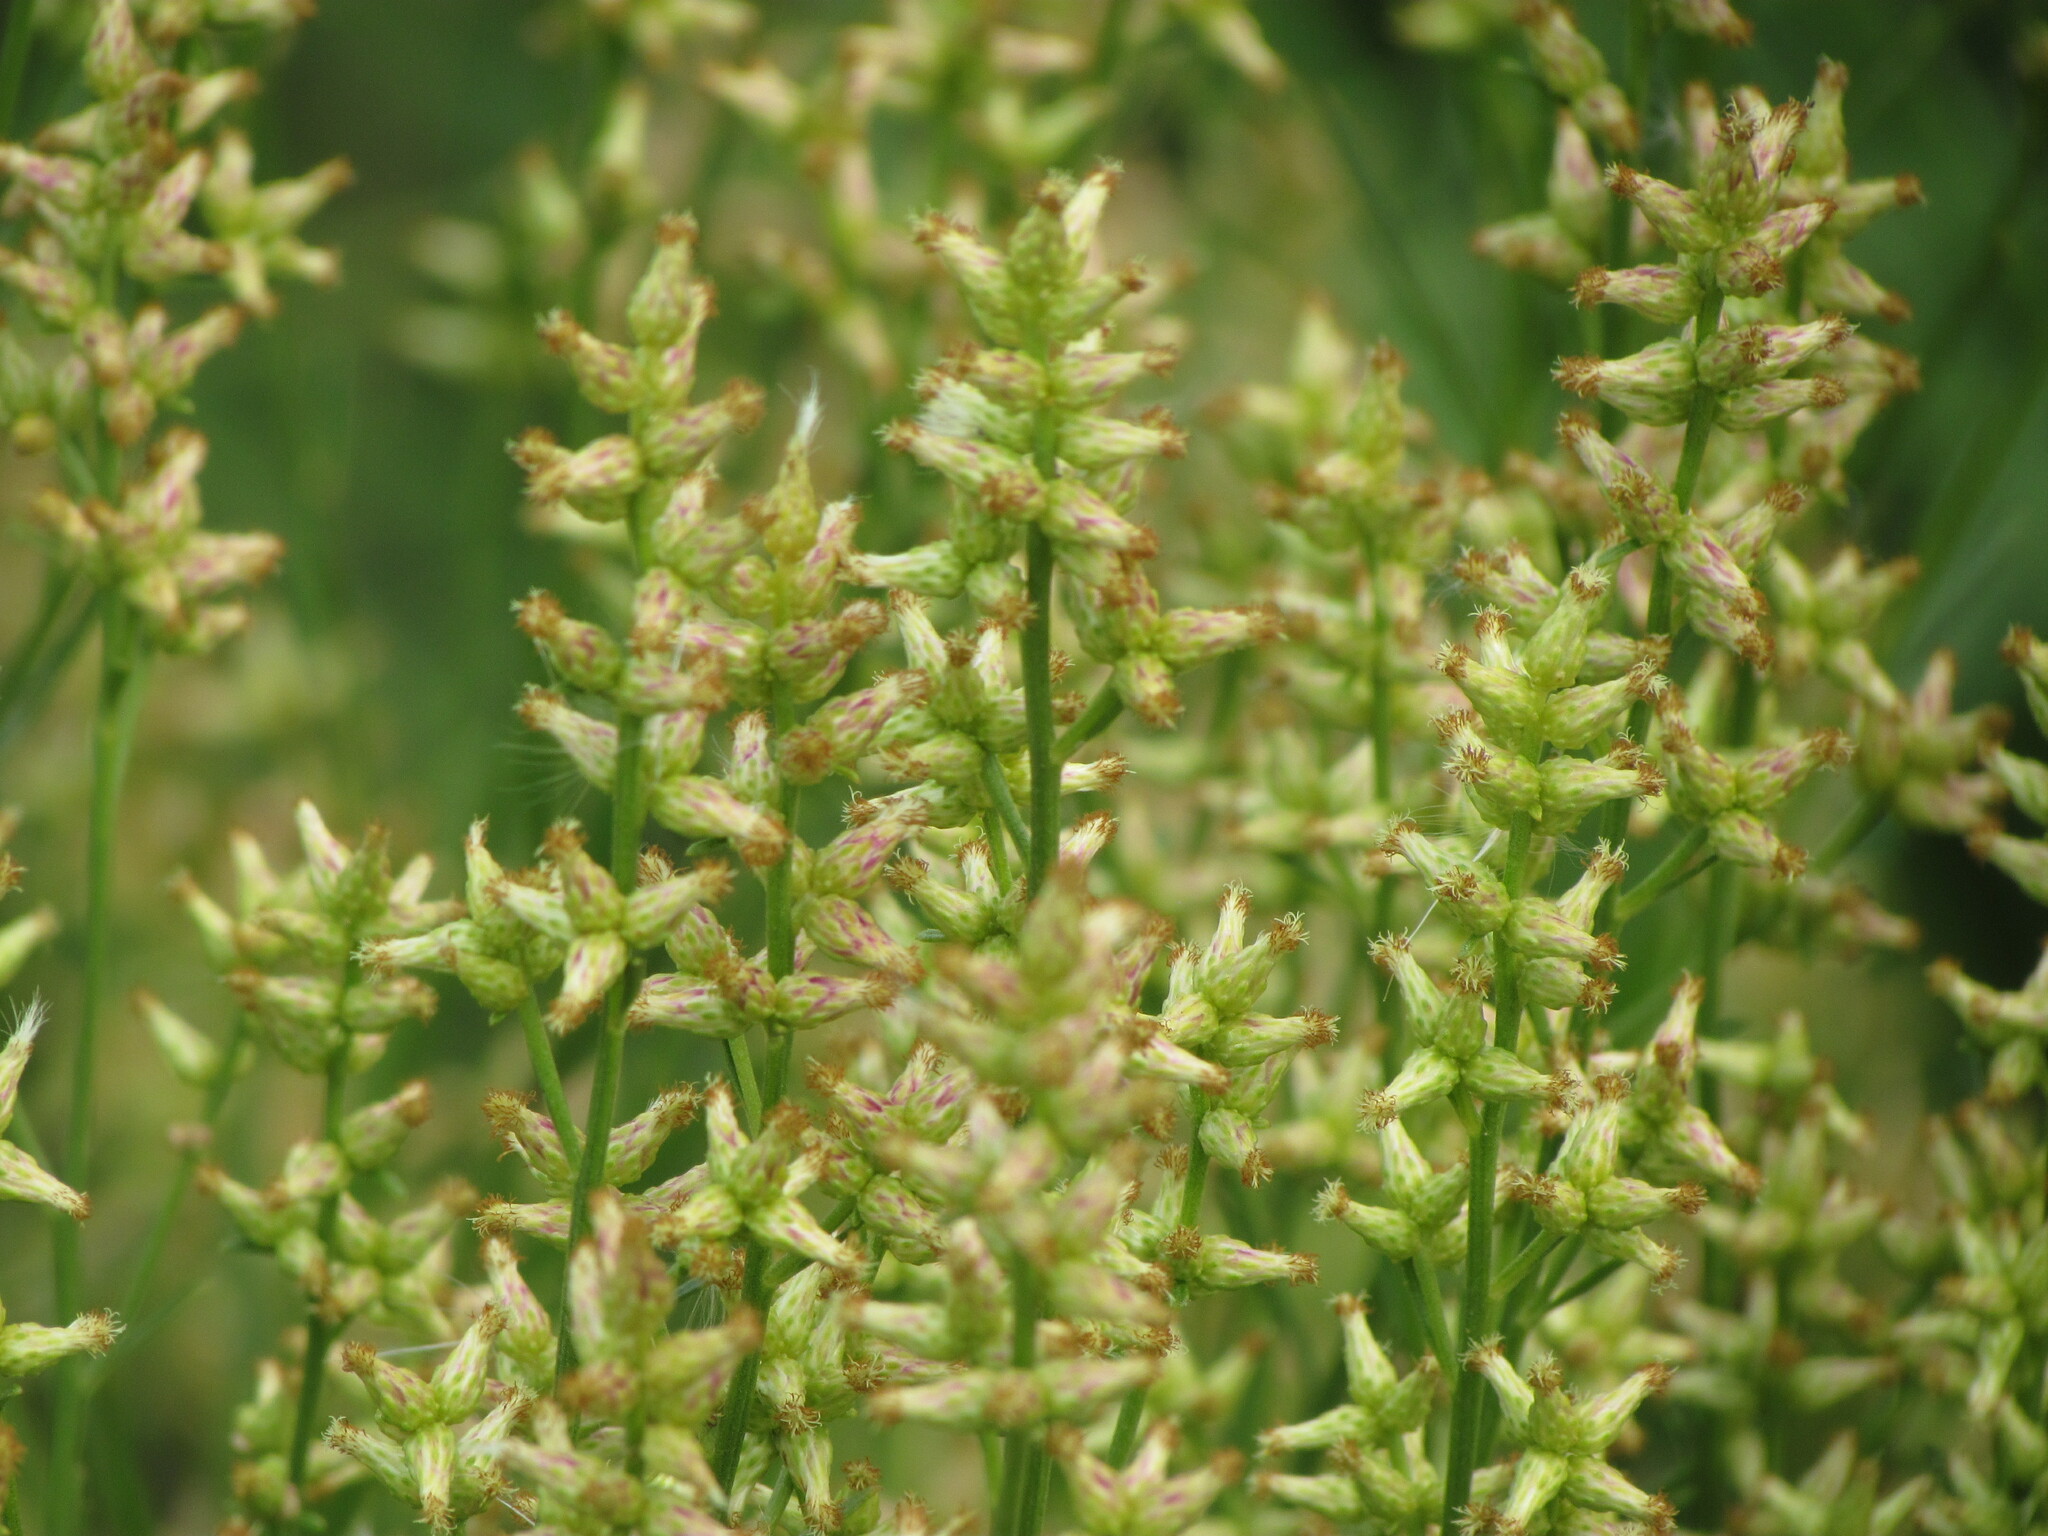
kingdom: Plantae
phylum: Tracheophyta
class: Magnoliopsida
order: Asterales
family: Asteraceae
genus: Baccharis
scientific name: Baccharis spicata
